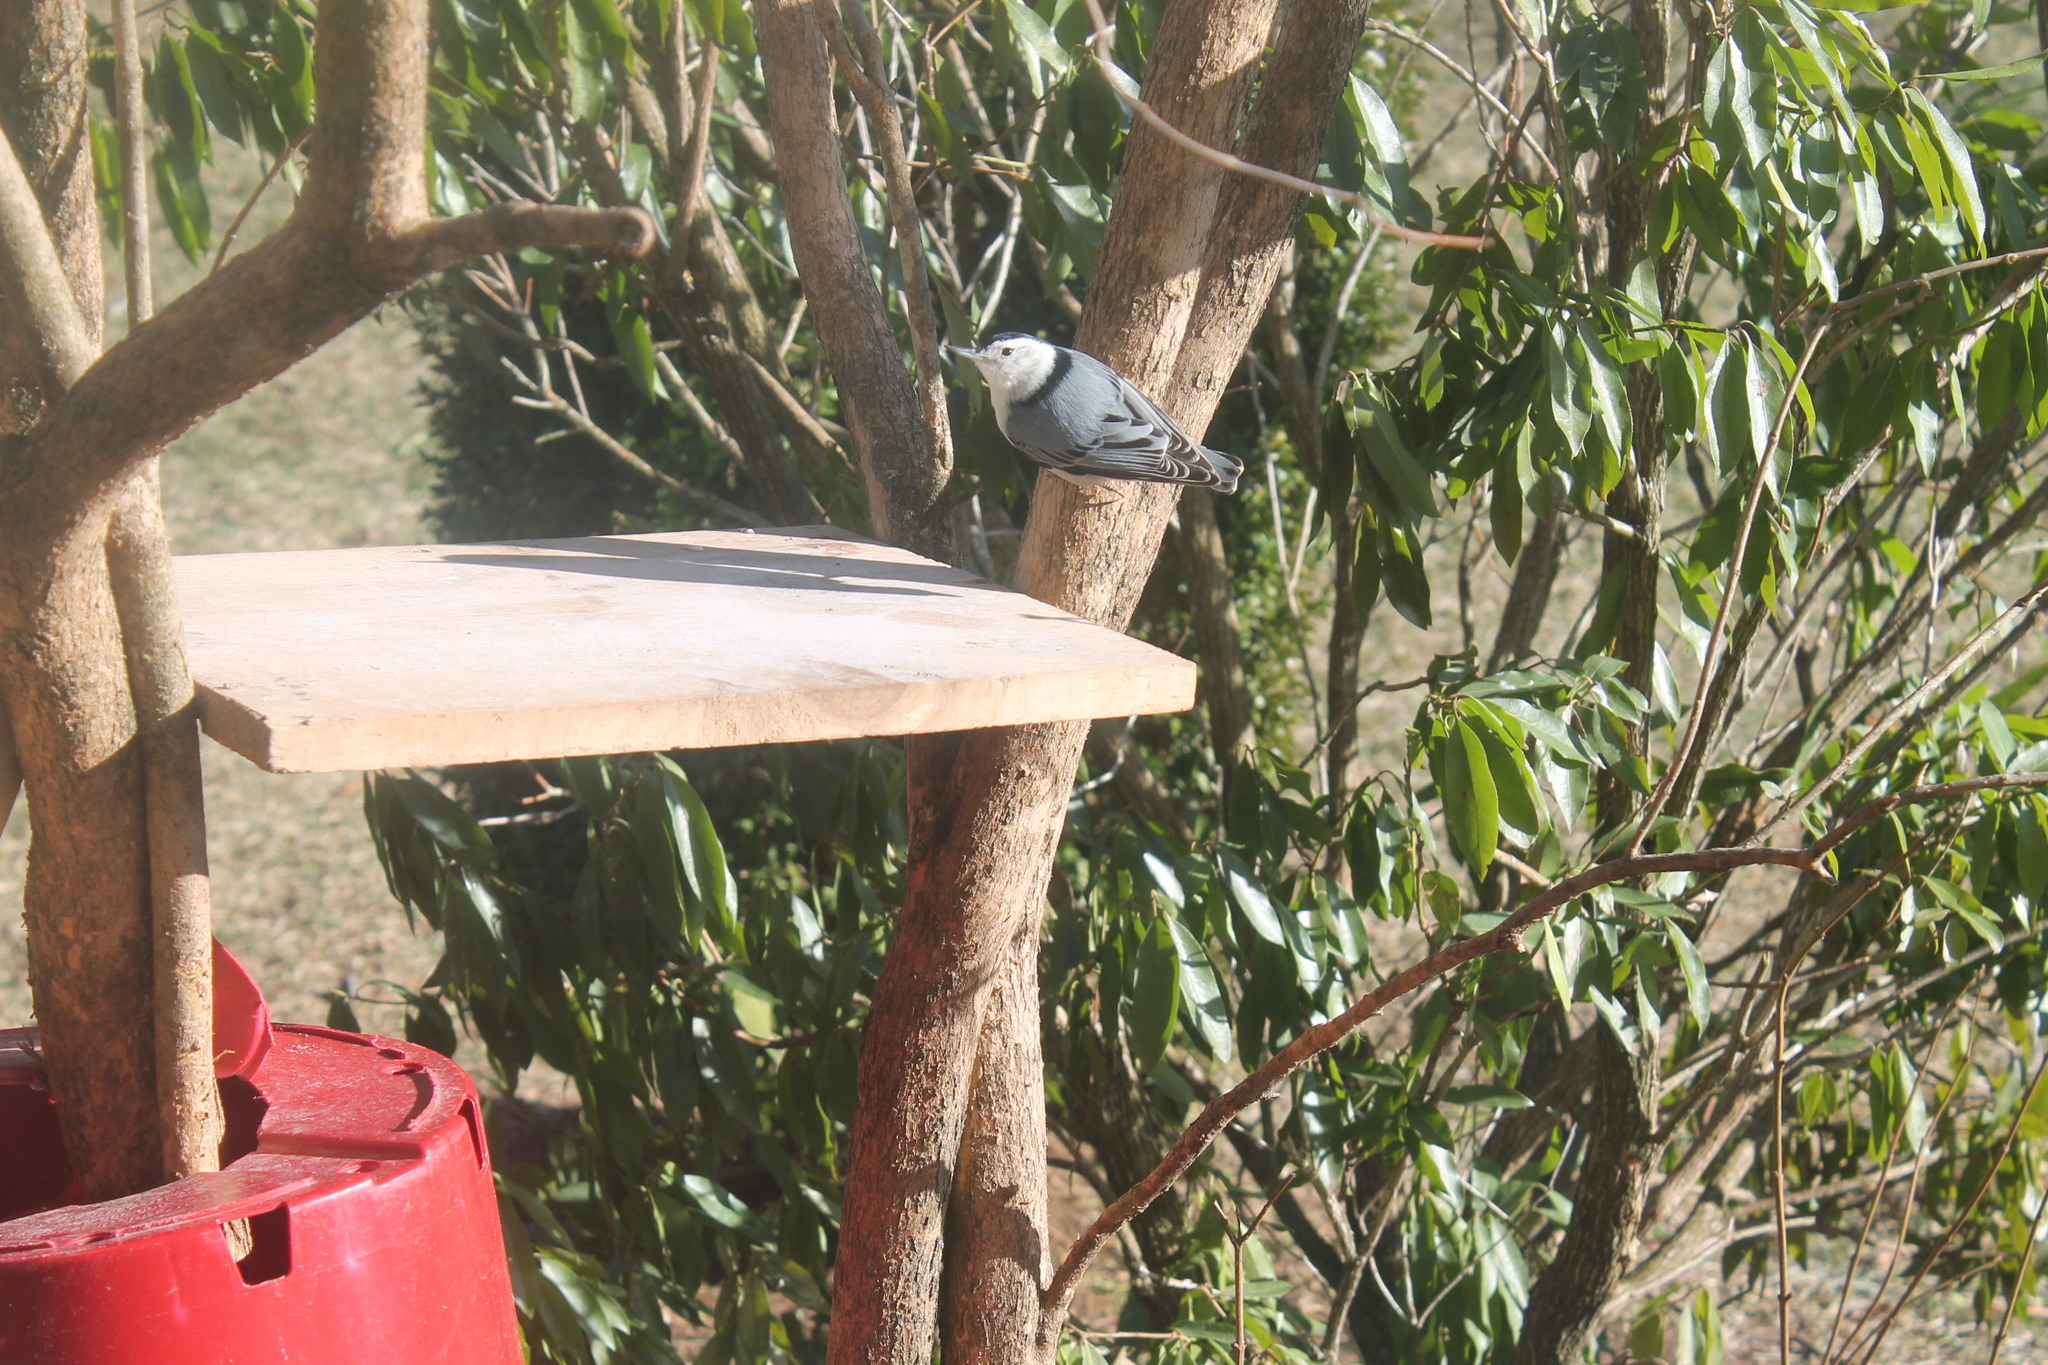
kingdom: Animalia
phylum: Chordata
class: Aves
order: Passeriformes
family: Sittidae
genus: Sitta
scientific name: Sitta carolinensis
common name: White-breasted nuthatch
